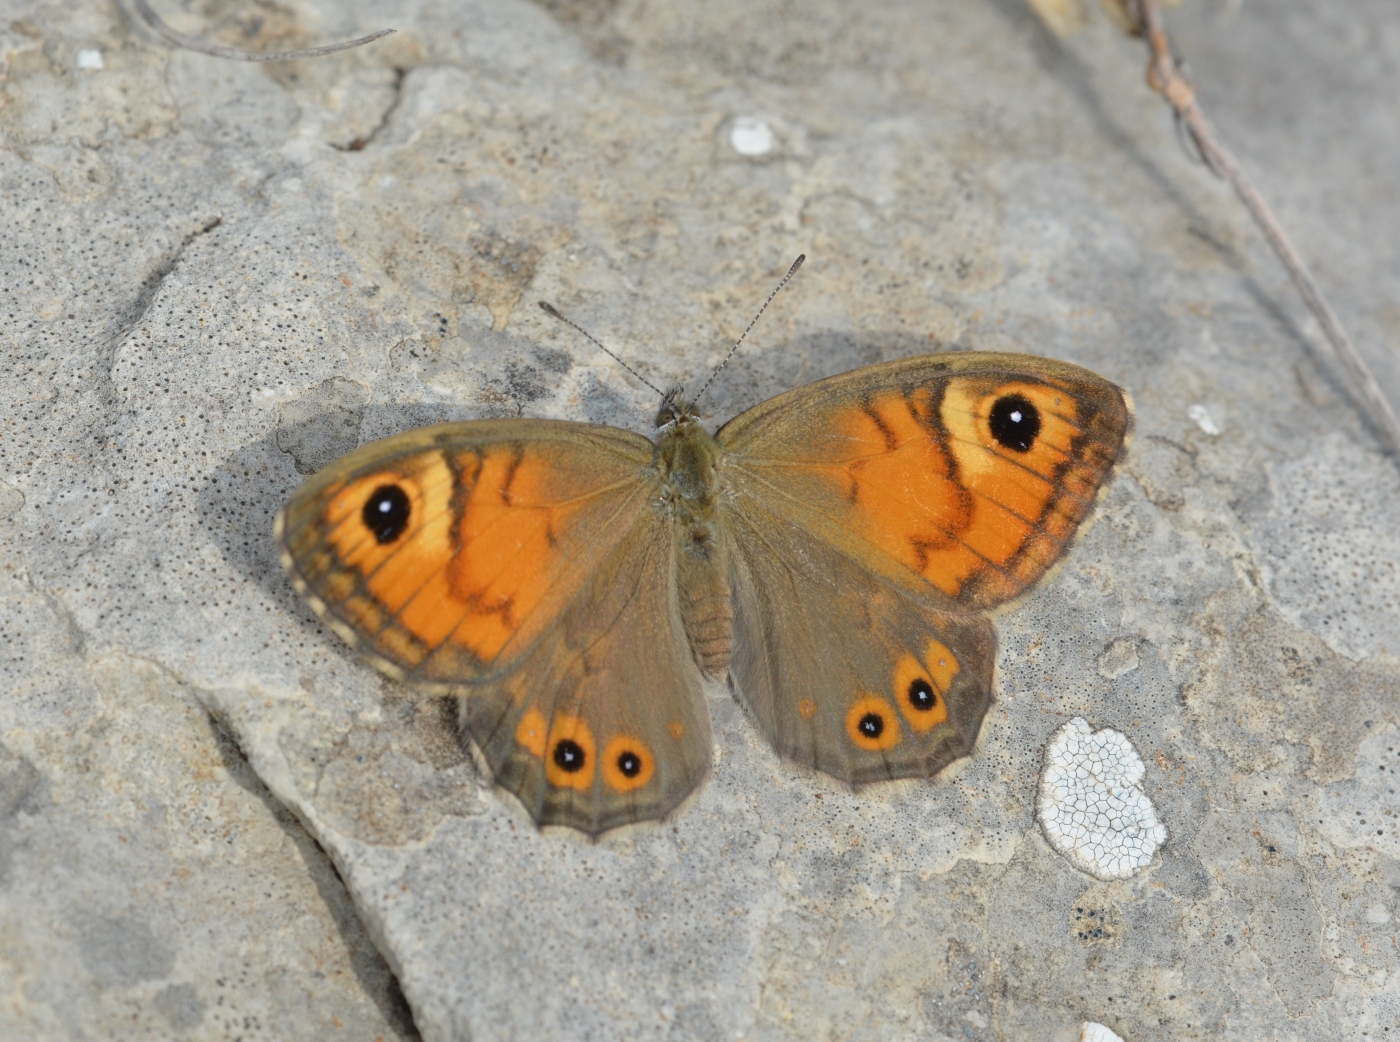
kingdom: Animalia
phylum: Arthropoda
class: Insecta
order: Lepidoptera
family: Nymphalidae
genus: Pararge
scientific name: Pararge Lasiommata maera
